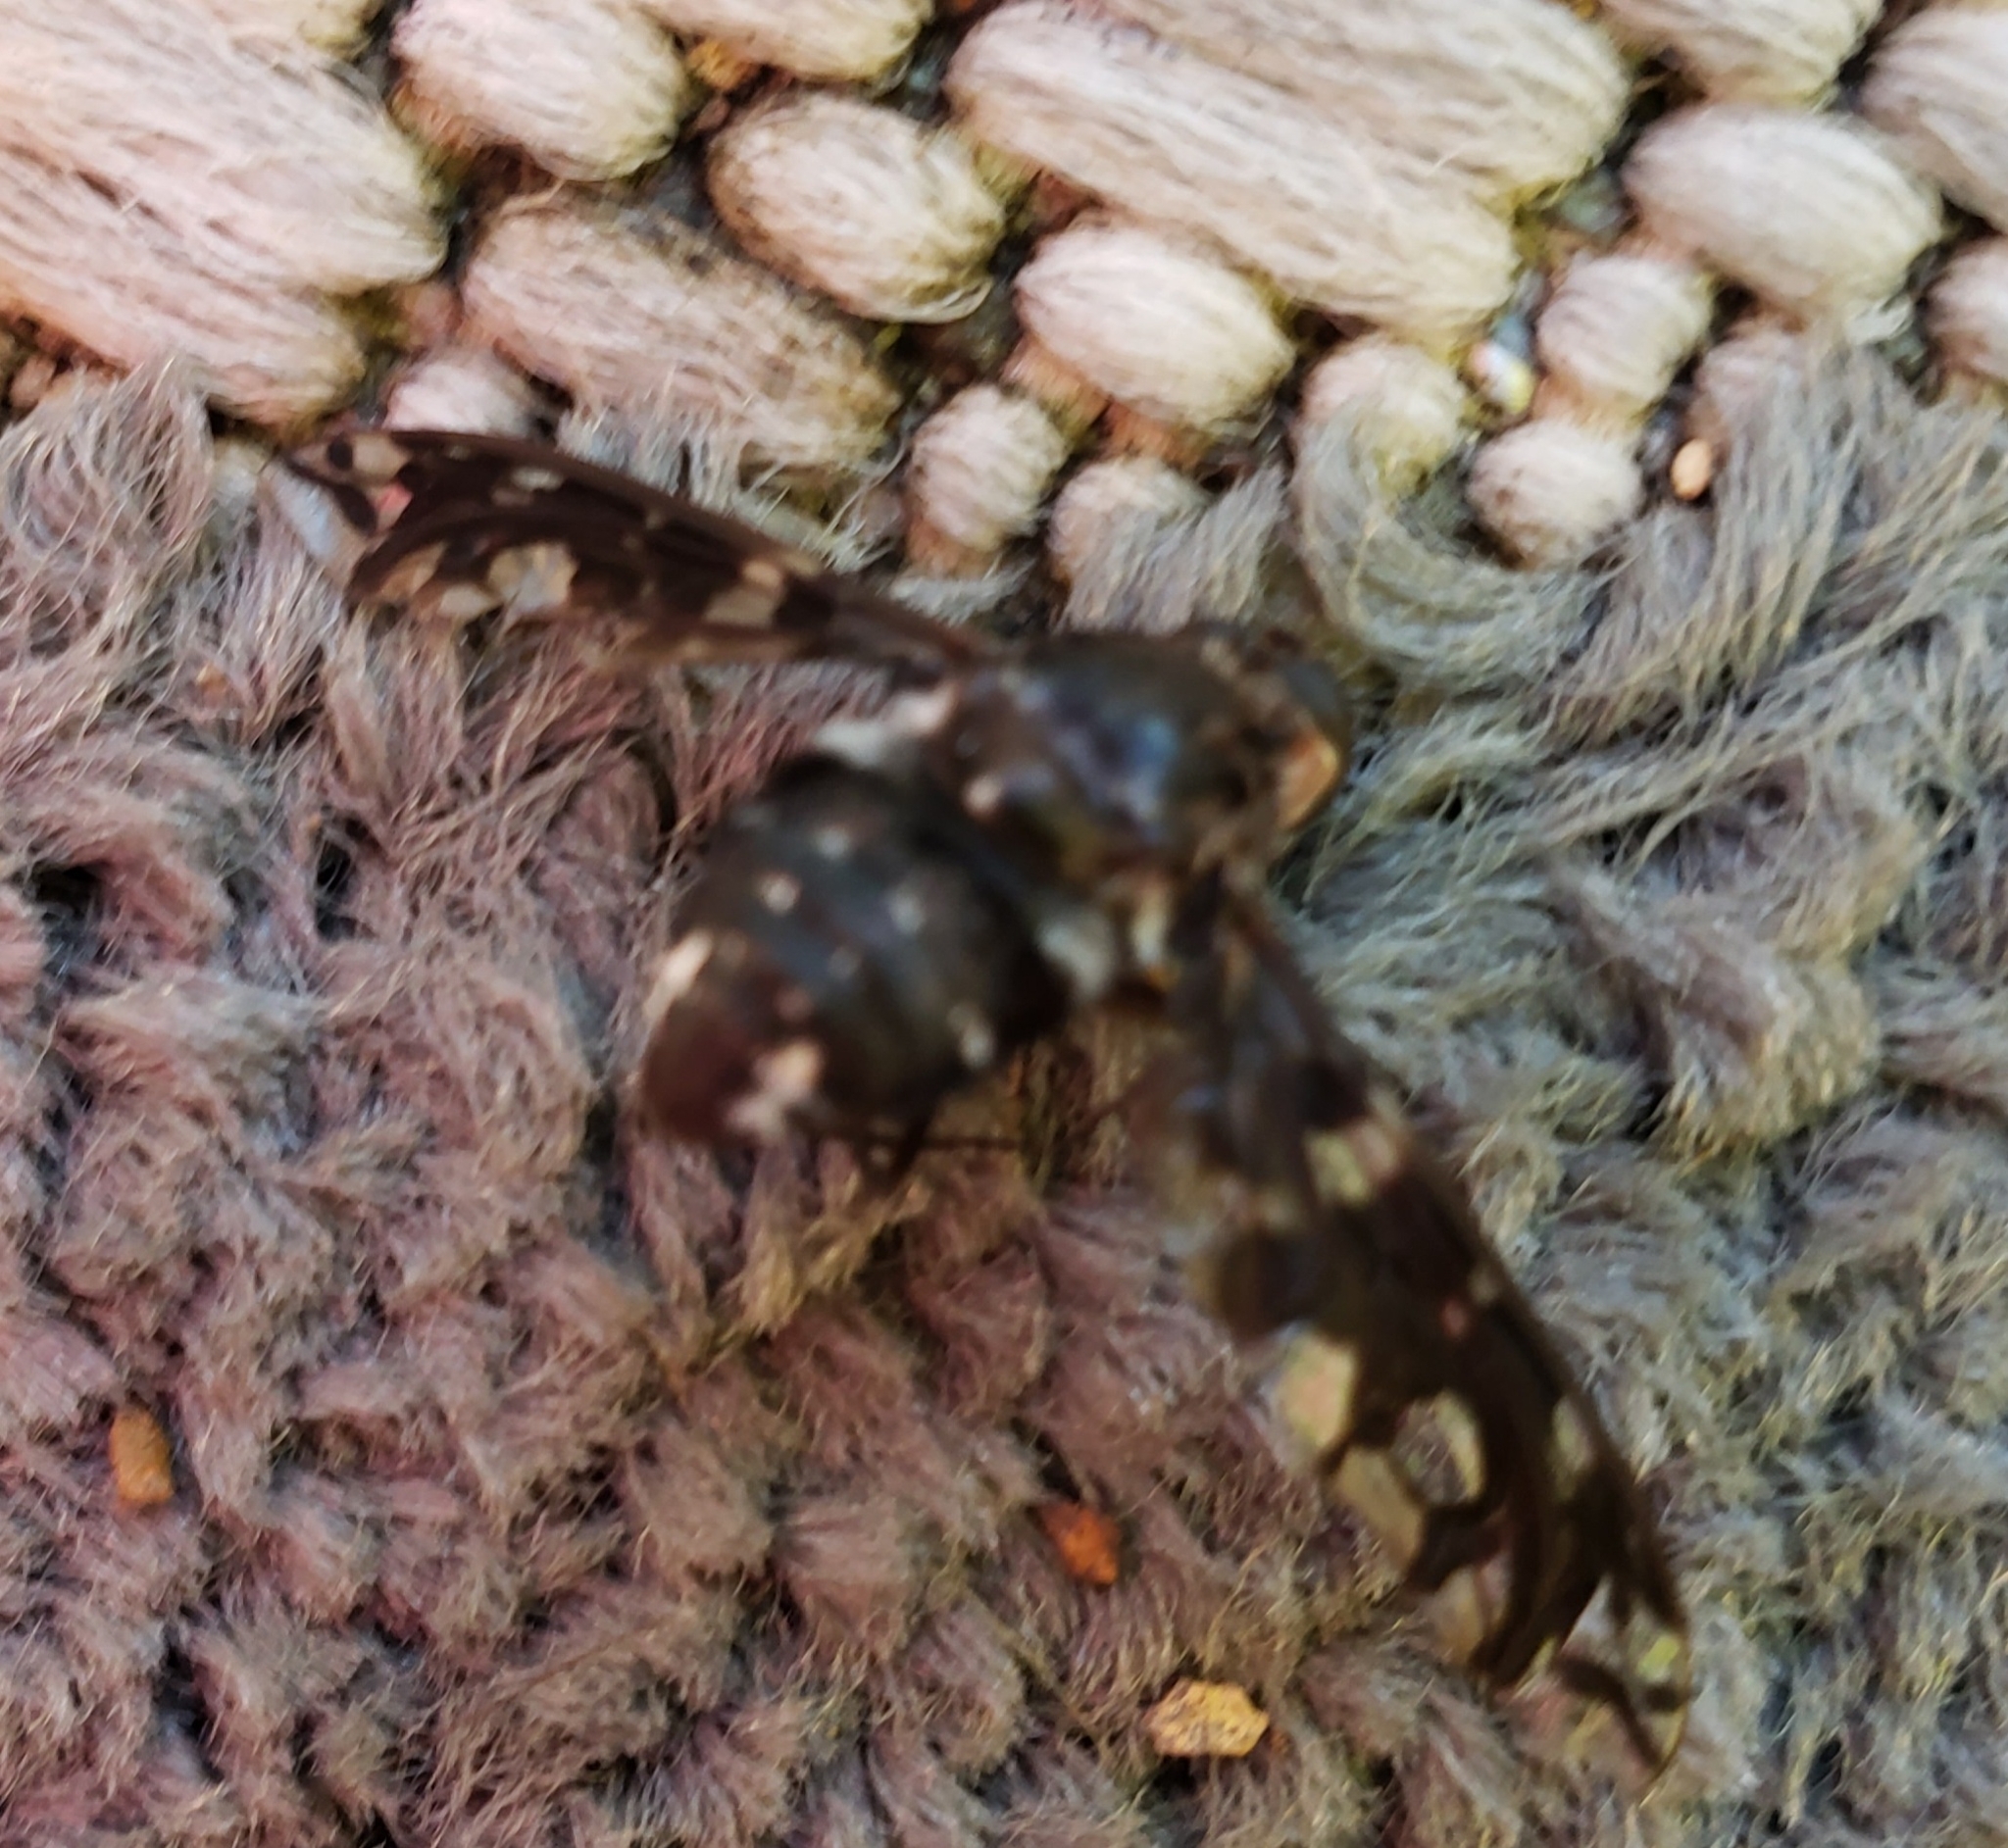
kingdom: Animalia
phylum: Arthropoda
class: Insecta
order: Diptera
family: Bombyliidae
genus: Xenox
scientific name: Xenox tigrinus
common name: Tiger bee fly
